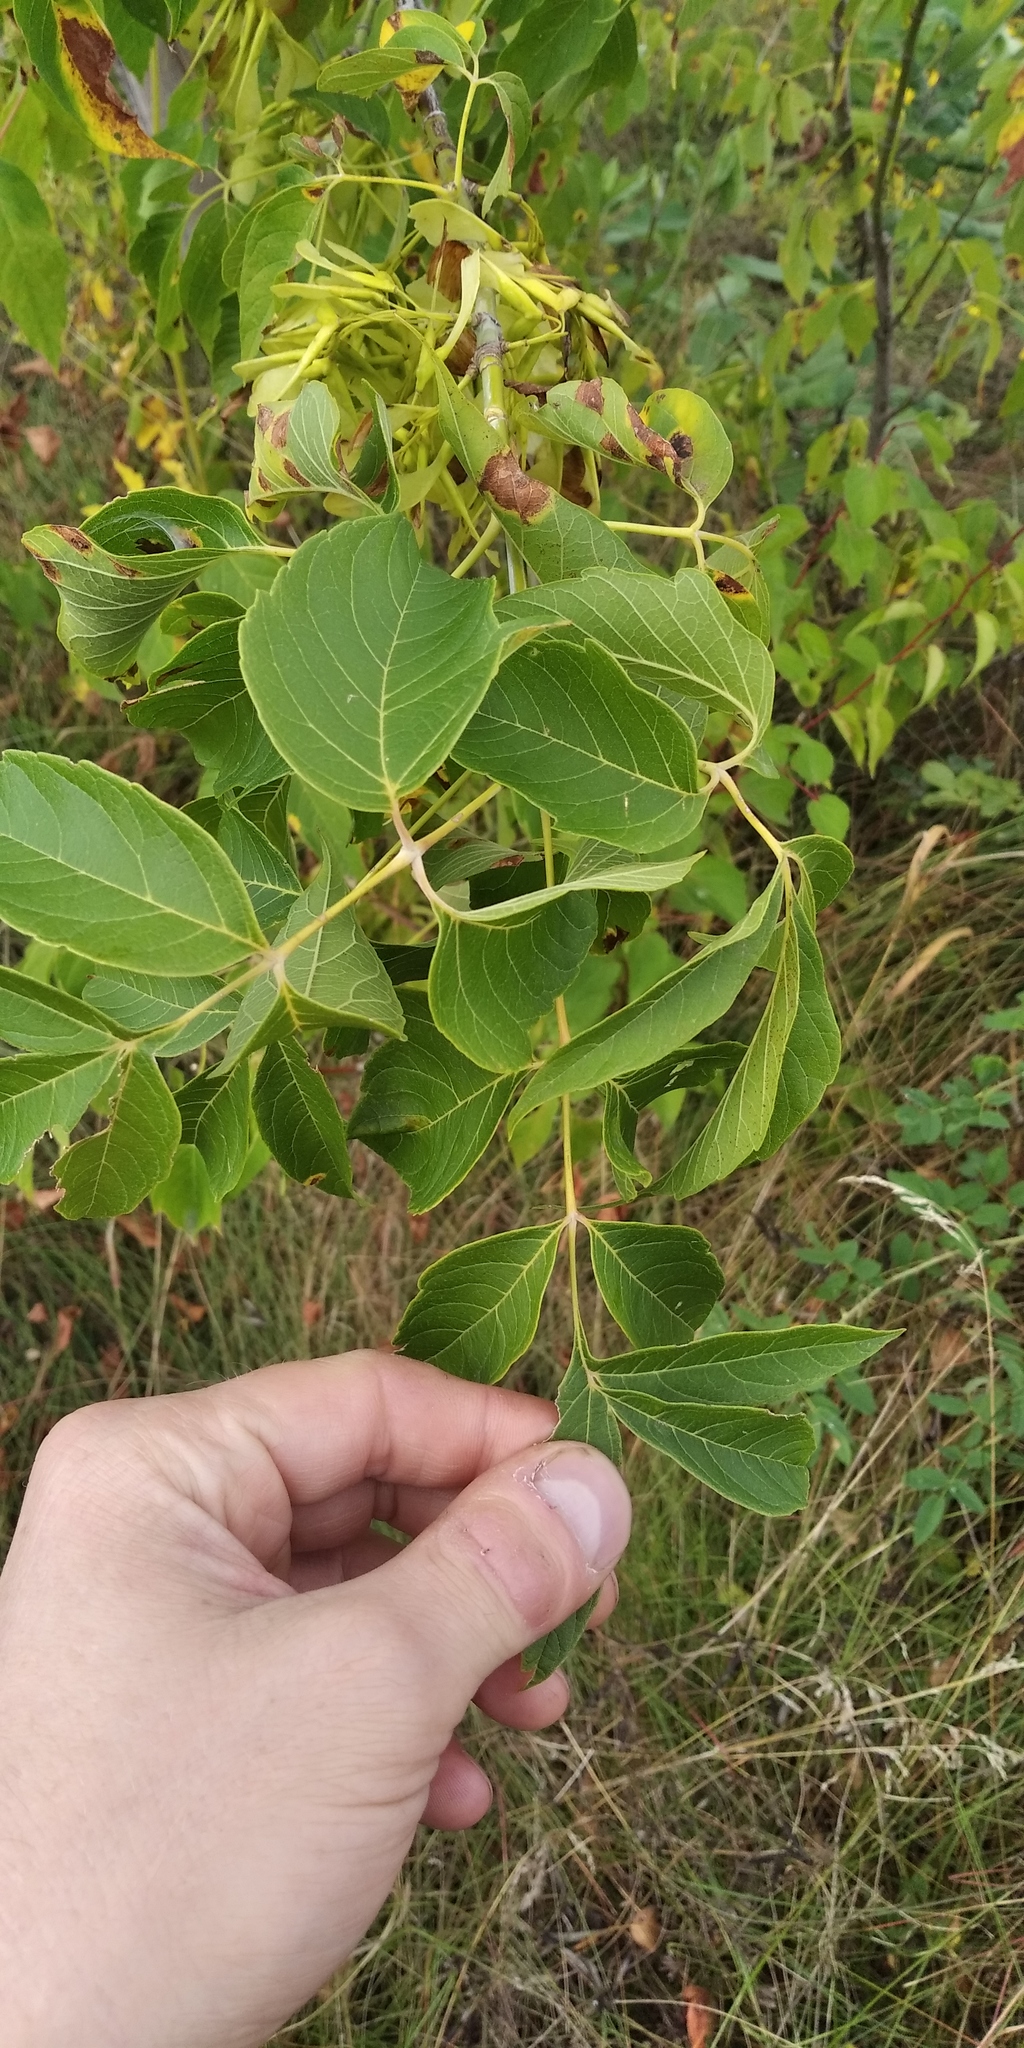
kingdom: Plantae
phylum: Tracheophyta
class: Magnoliopsida
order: Sapindales
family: Sapindaceae
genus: Acer
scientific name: Acer negundo
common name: Ashleaf maple
